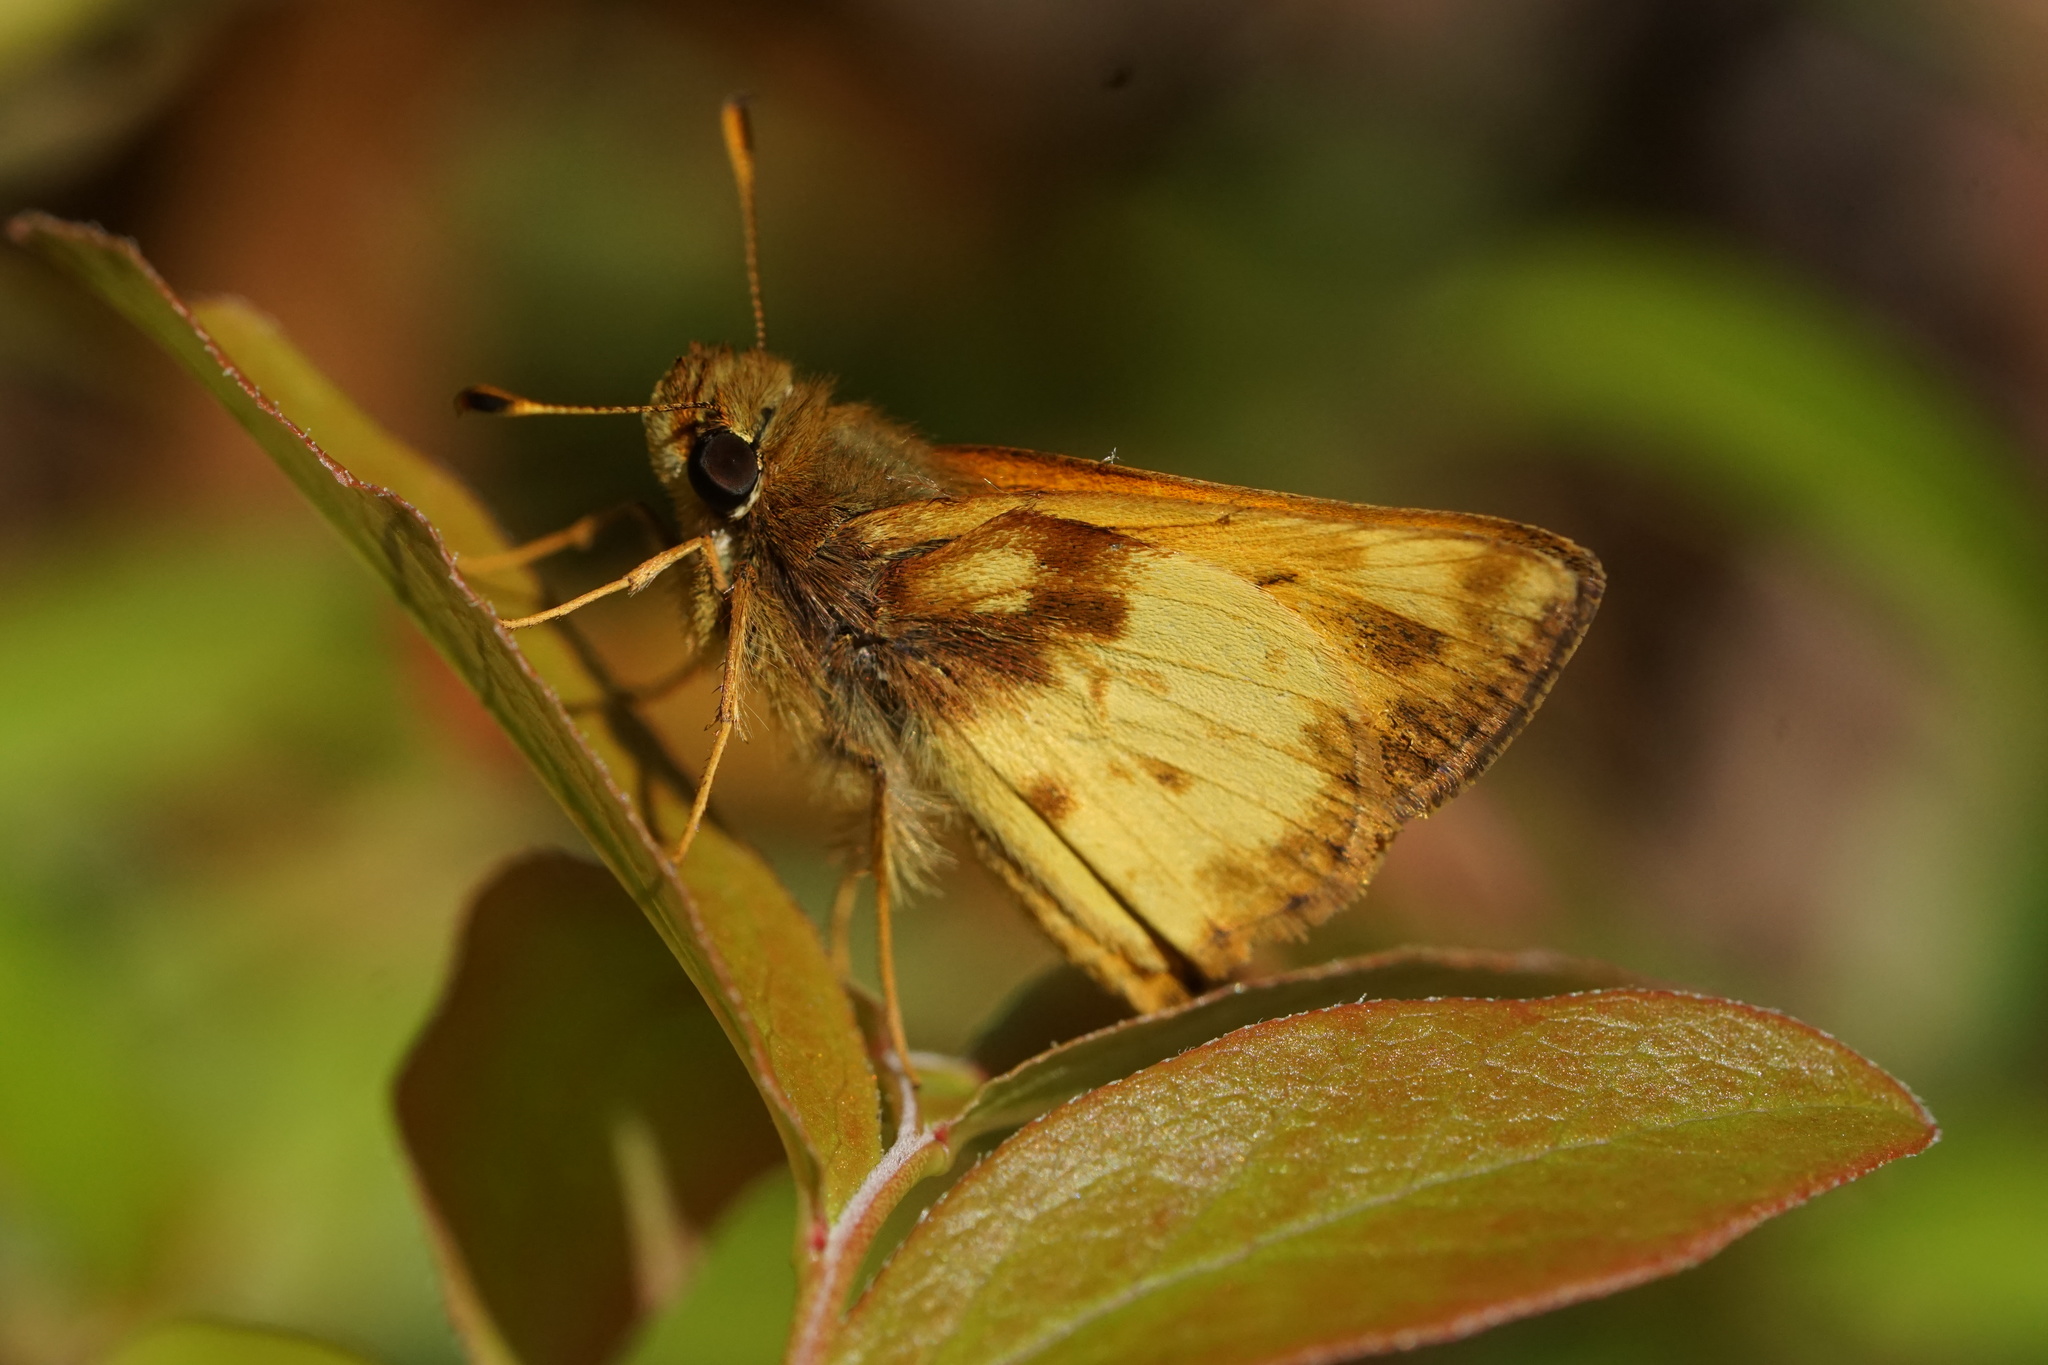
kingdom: Animalia
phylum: Arthropoda
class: Insecta
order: Lepidoptera
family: Hesperiidae
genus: Lon
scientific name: Lon zabulon
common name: Zabulon skipper
